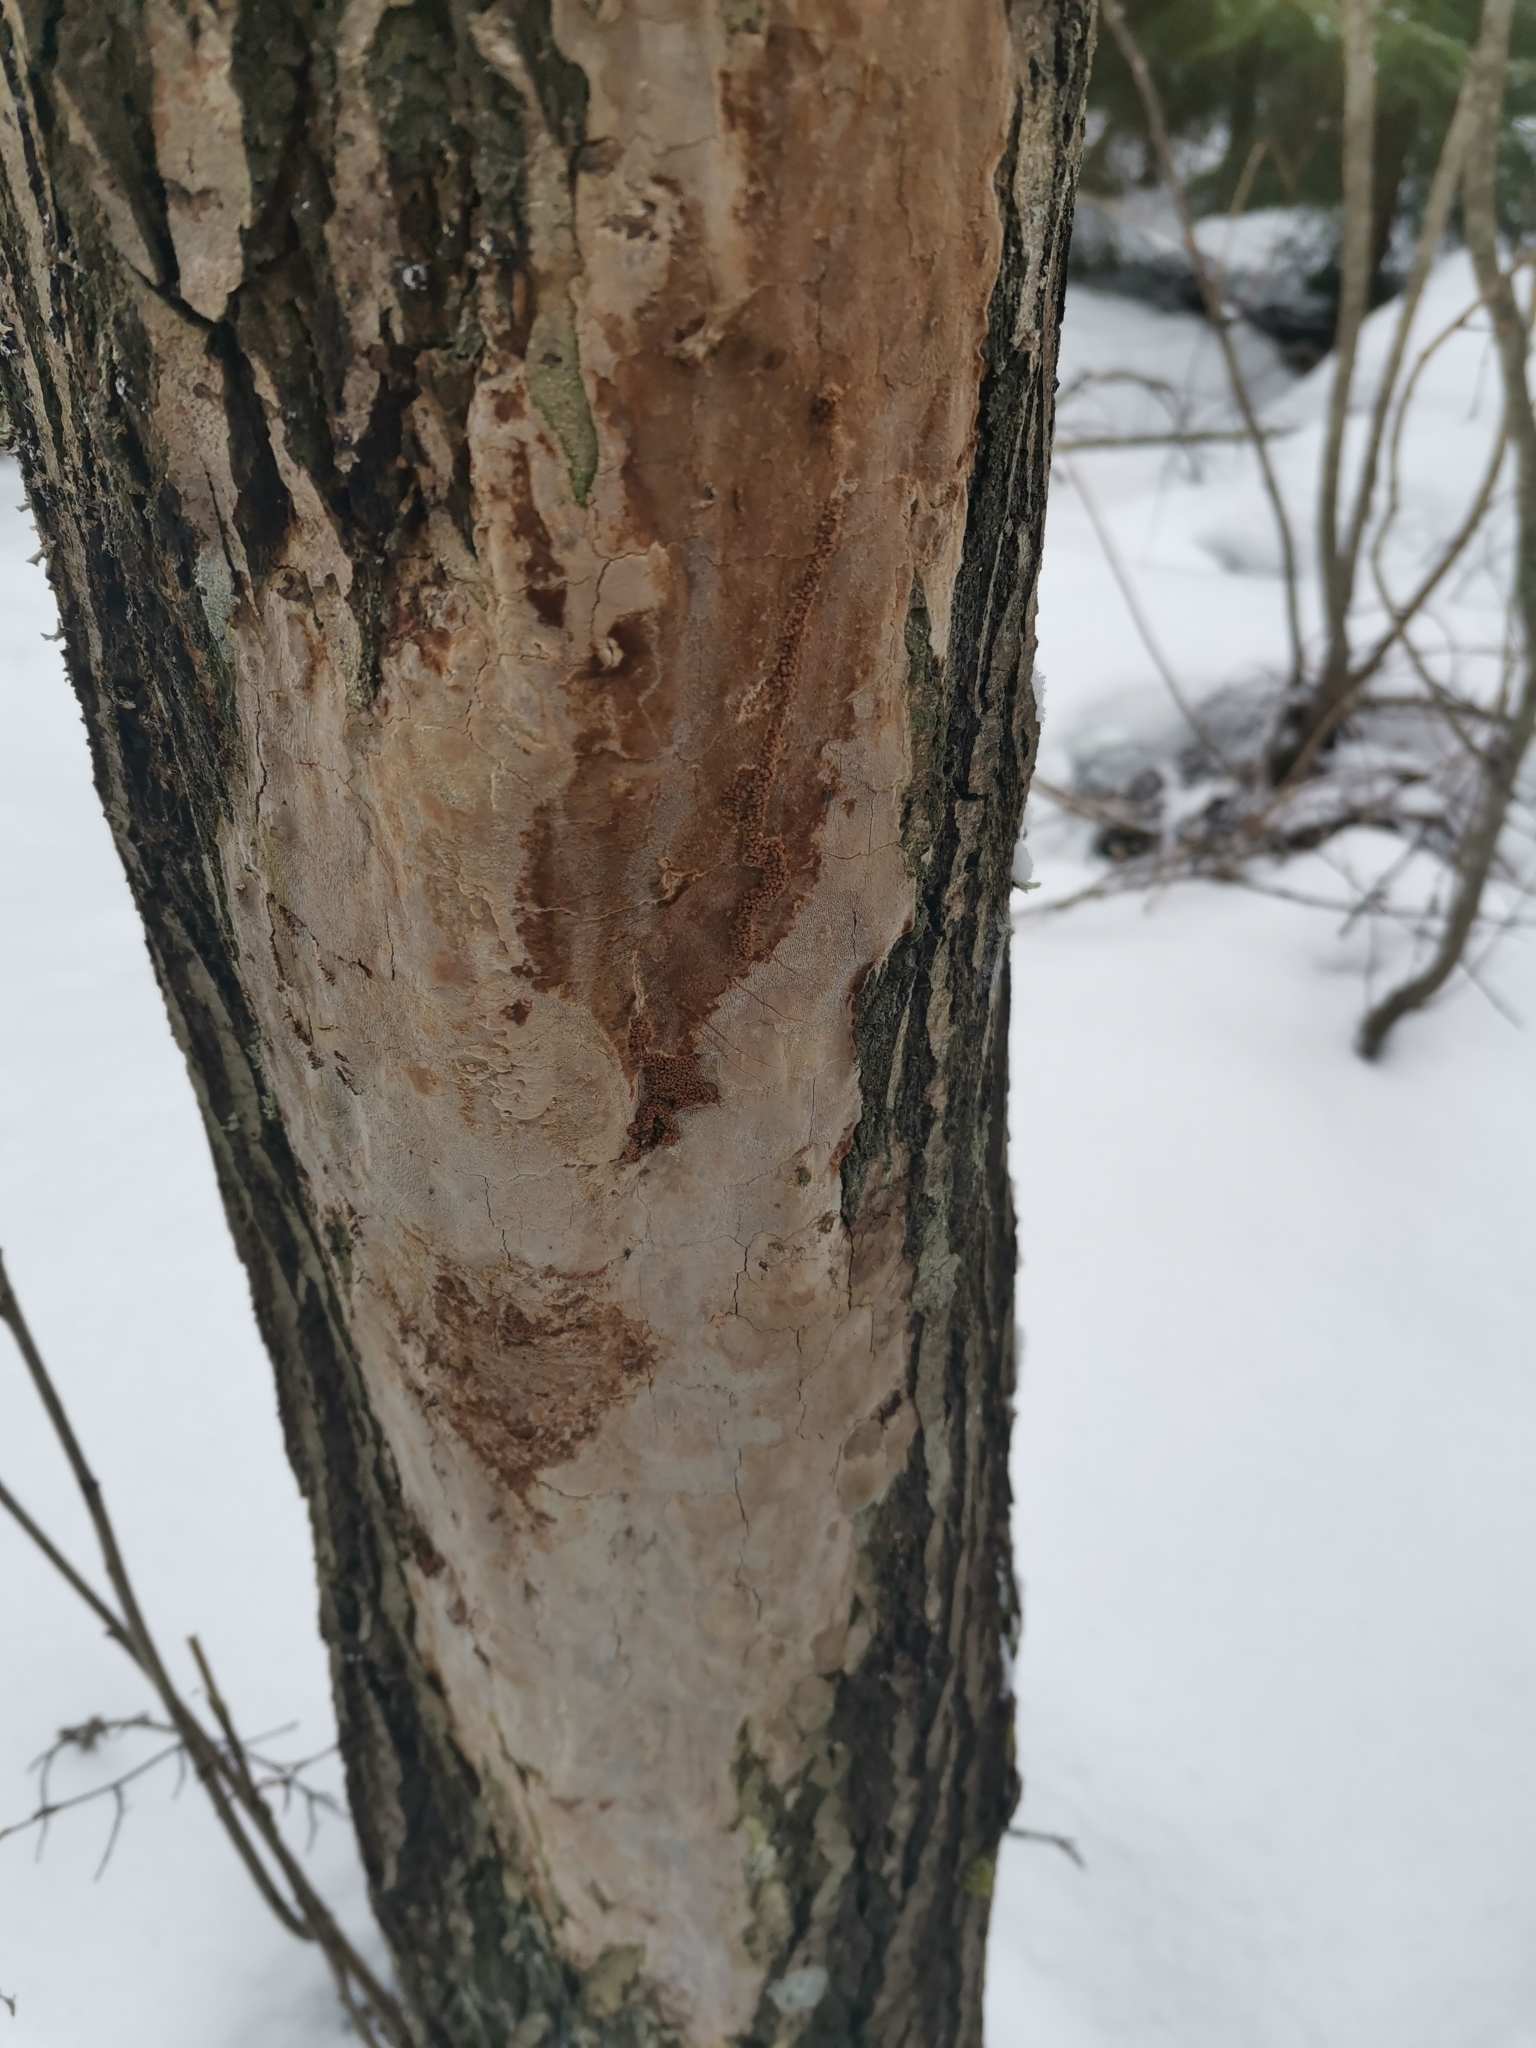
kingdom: Fungi
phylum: Basidiomycota
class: Agaricomycetes
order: Hymenochaetales
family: Hymenochaetaceae
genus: Fomitiporia
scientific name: Fomitiporia punctata
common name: Elbowpatch crust
